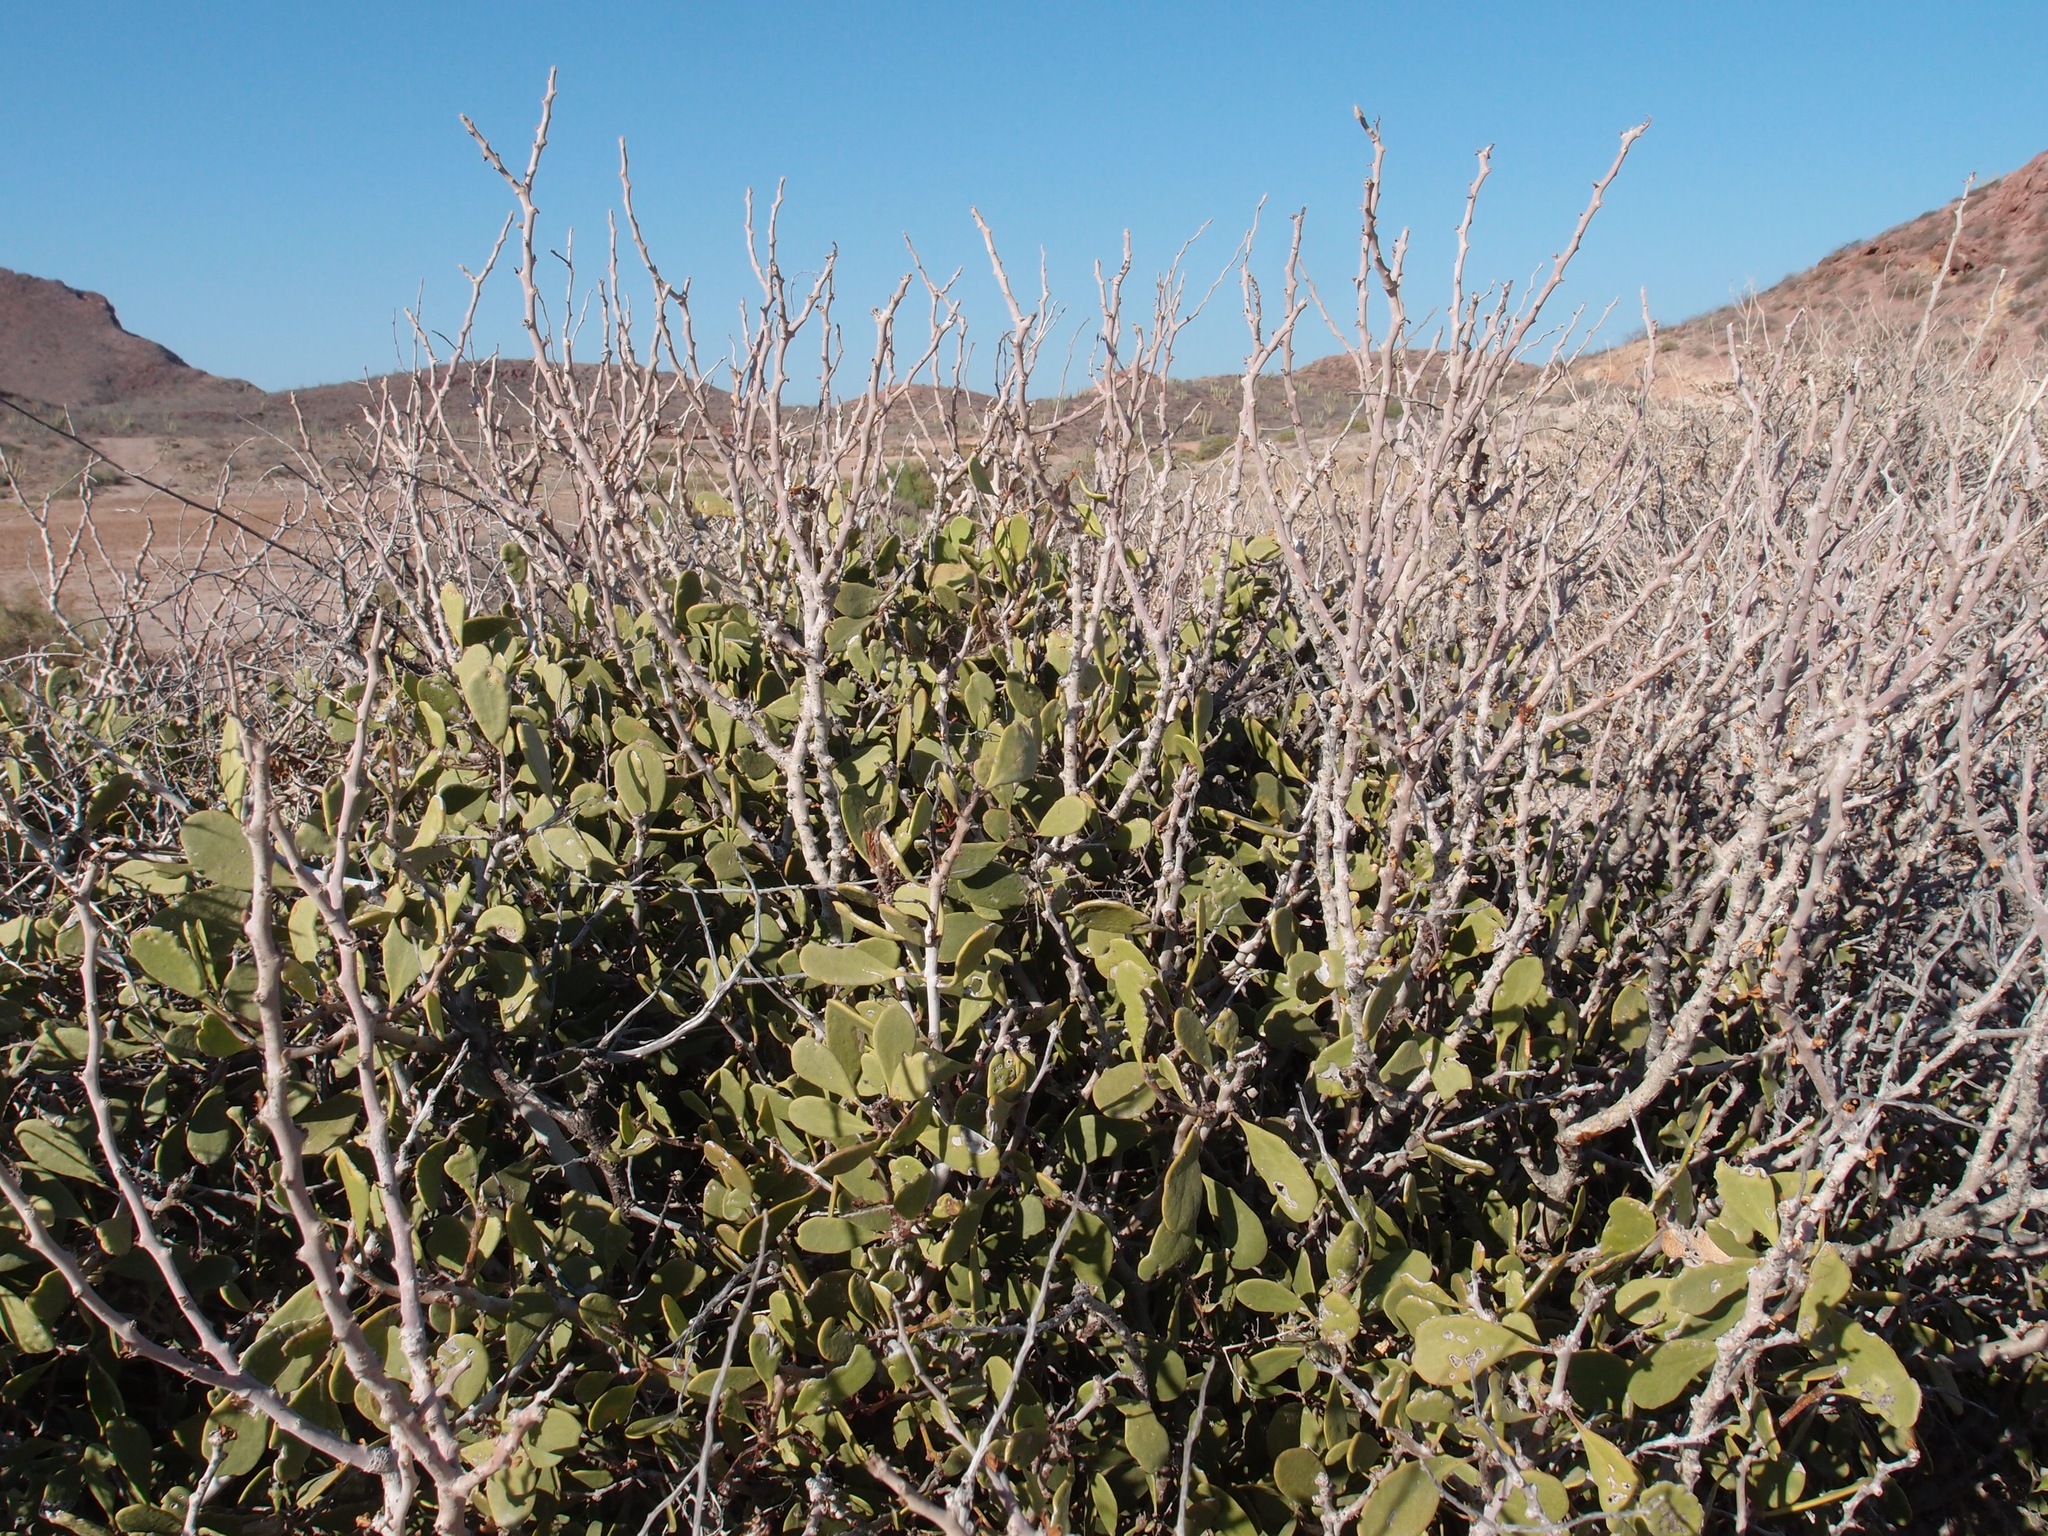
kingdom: Plantae
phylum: Tracheophyta
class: Magnoliopsida
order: Celastrales
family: Celastraceae
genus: Tricerma
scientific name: Tricerma phyllanthoides
